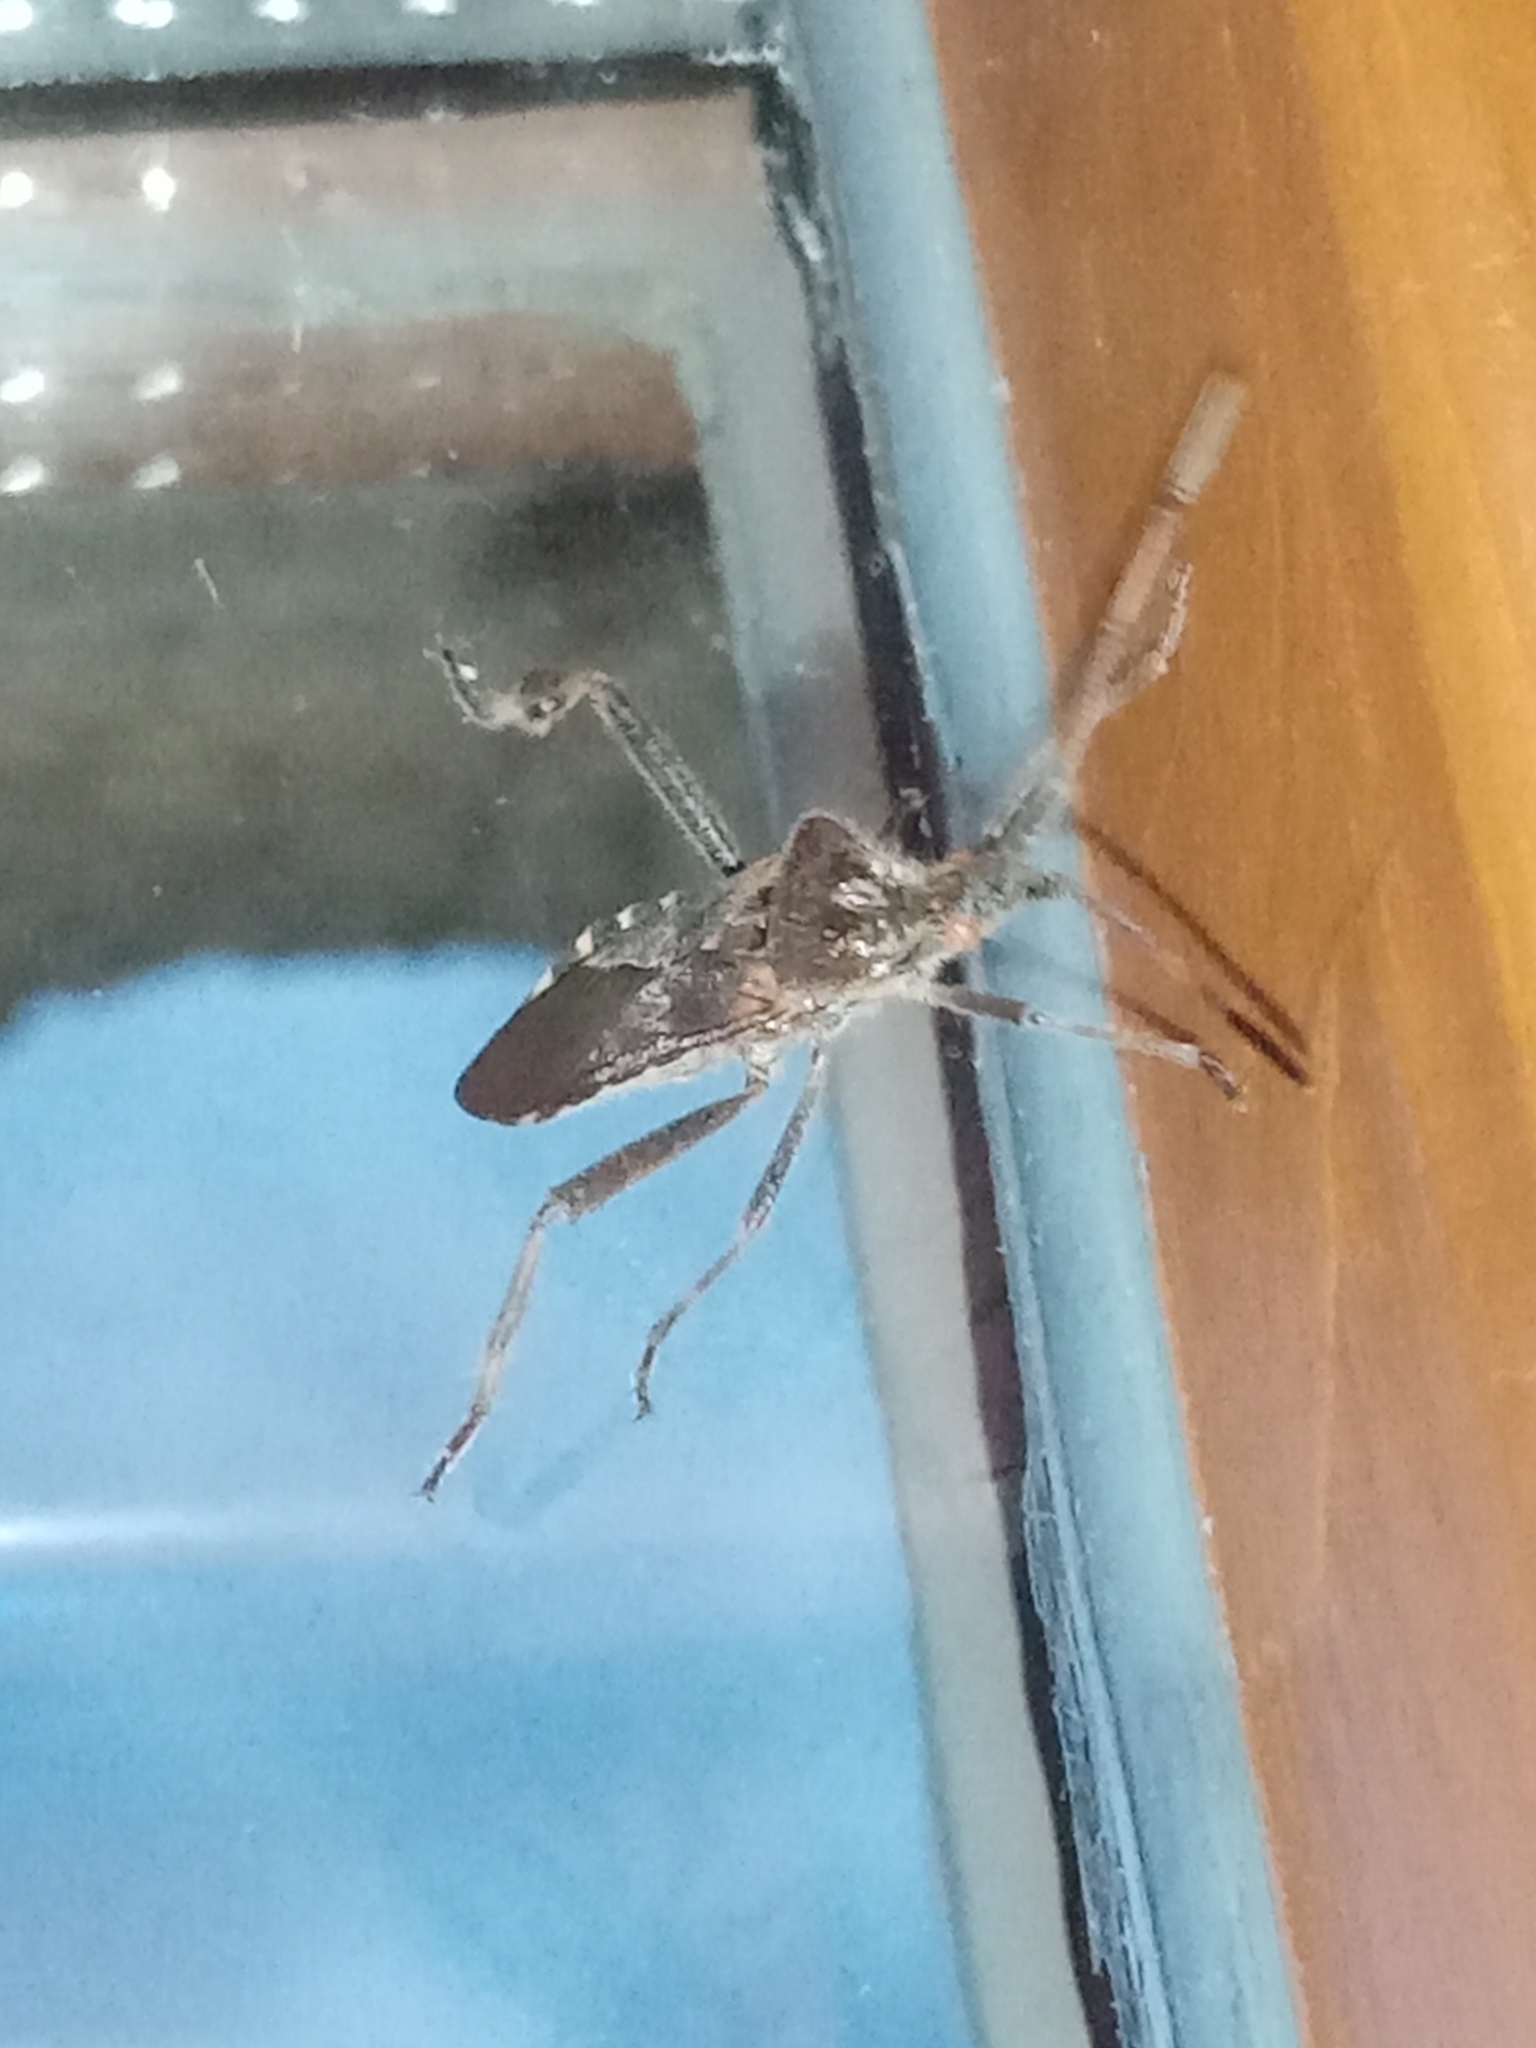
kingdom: Animalia
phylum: Arthropoda
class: Insecta
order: Hemiptera
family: Coreidae
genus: Leptoglossus
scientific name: Leptoglossus occidentalis
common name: Western conifer-seed bug
